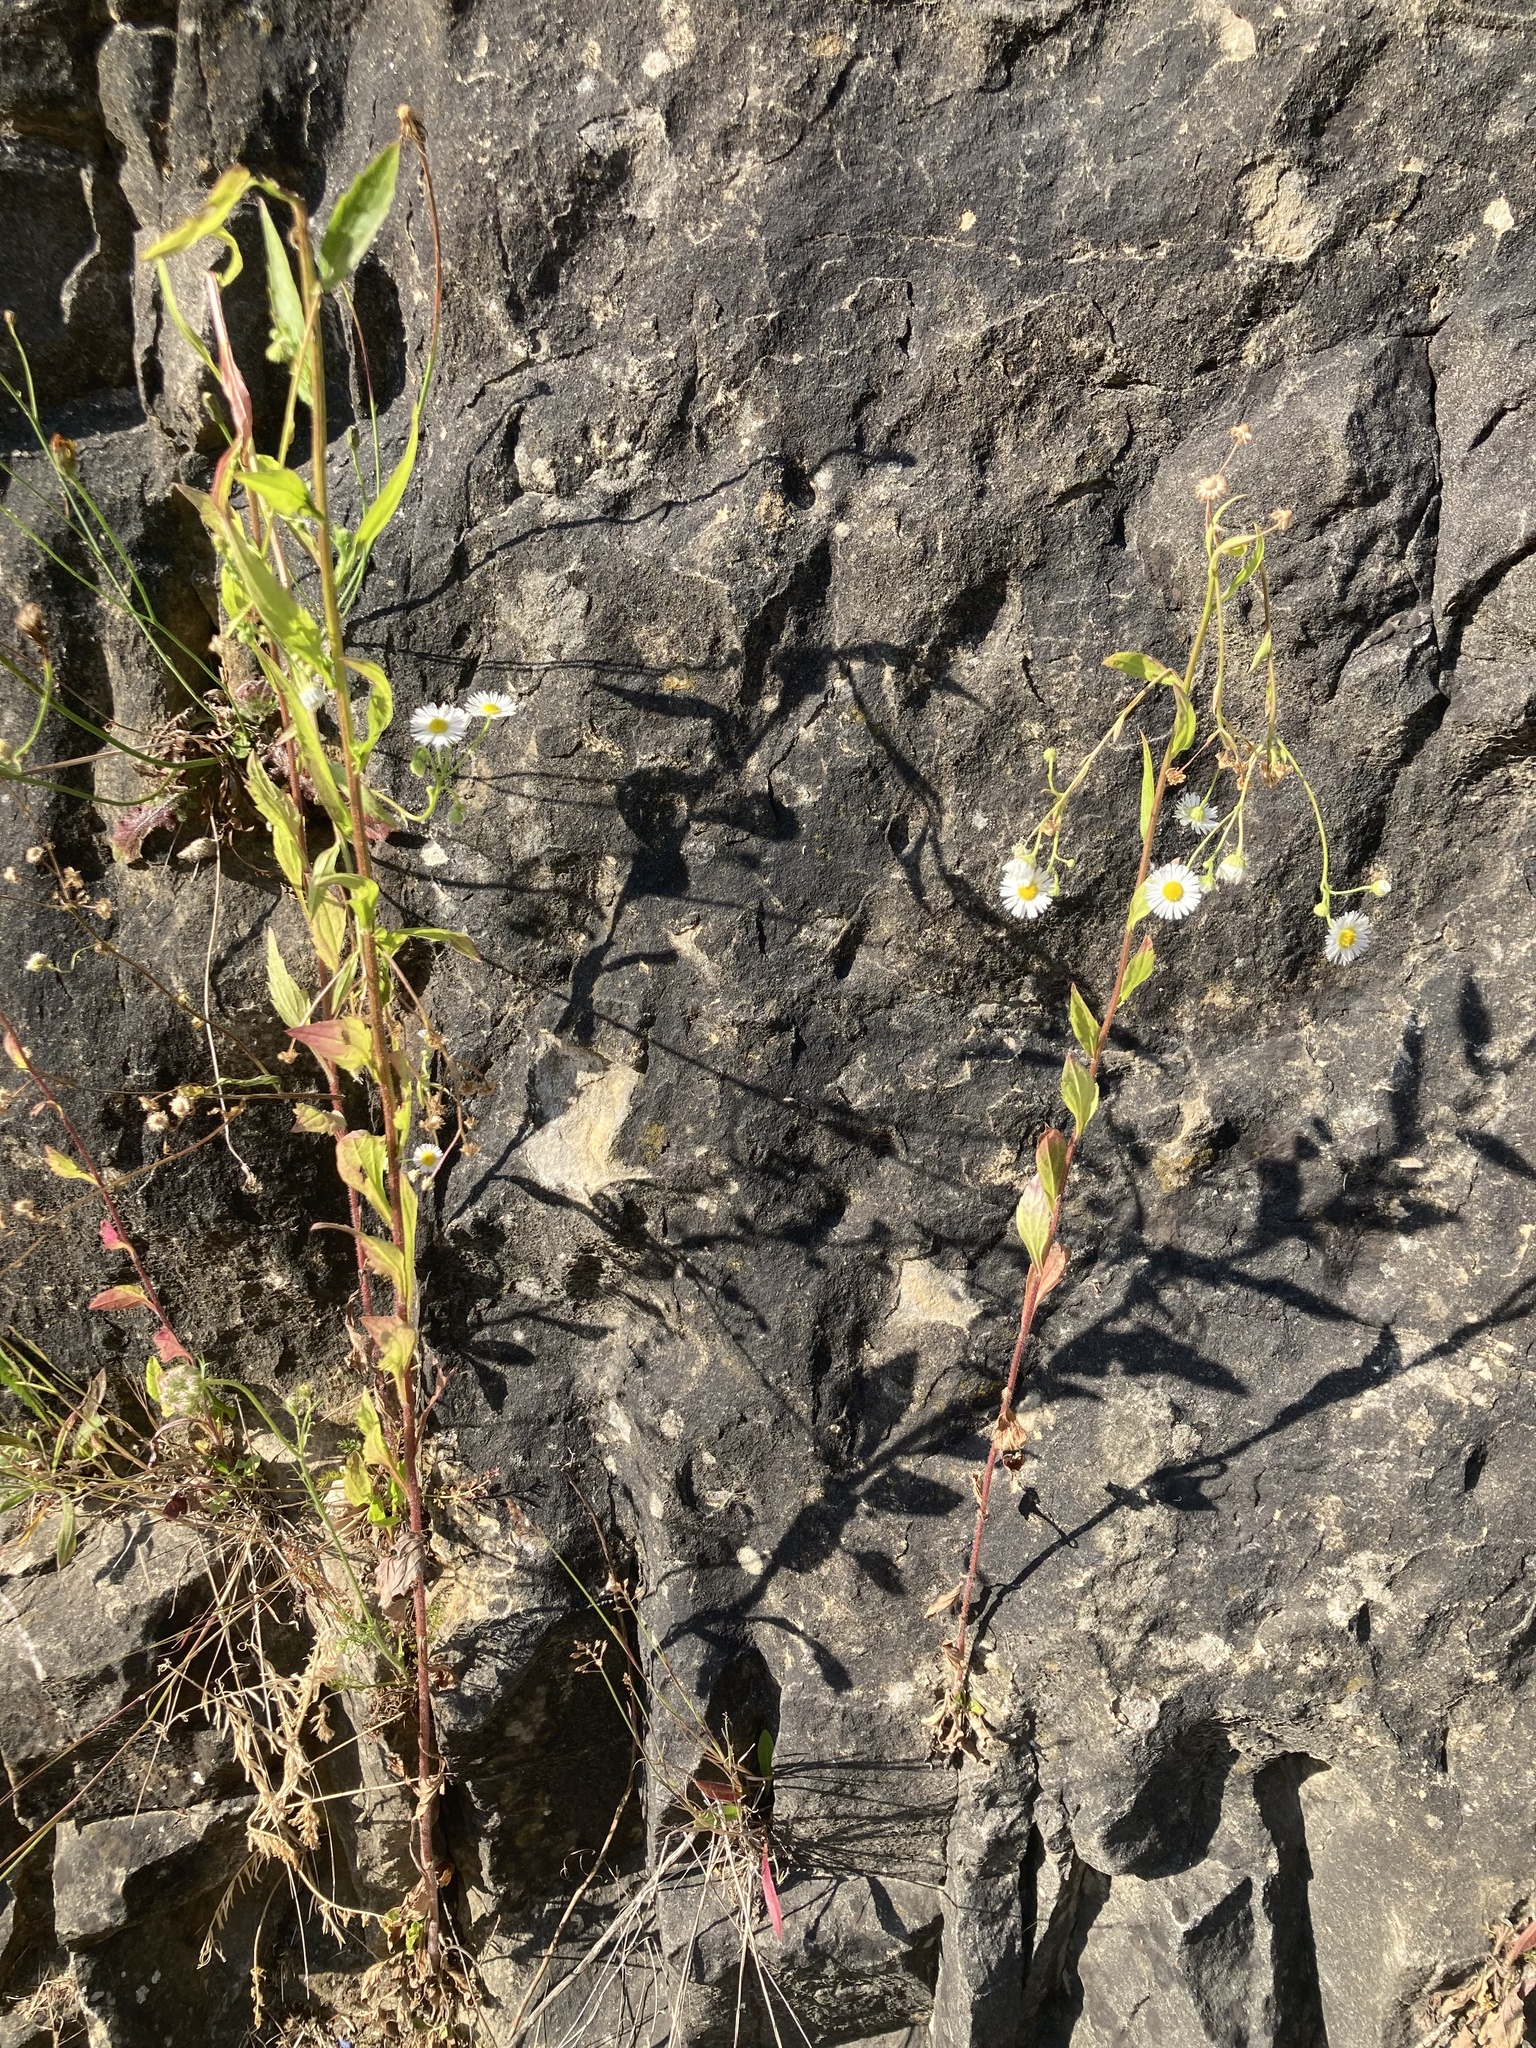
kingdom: Plantae
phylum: Tracheophyta
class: Magnoliopsida
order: Asterales
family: Asteraceae
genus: Erigeron
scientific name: Erigeron annuus
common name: Tall fleabane
